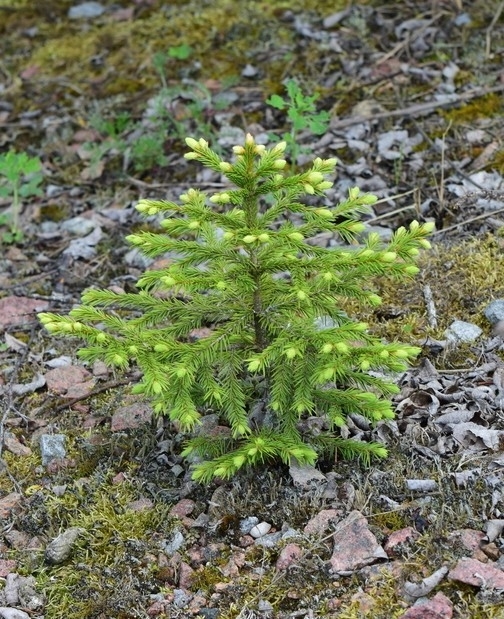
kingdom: Plantae
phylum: Tracheophyta
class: Pinopsida
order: Pinales
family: Pinaceae
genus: Picea
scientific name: Picea abies
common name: Norway spruce
